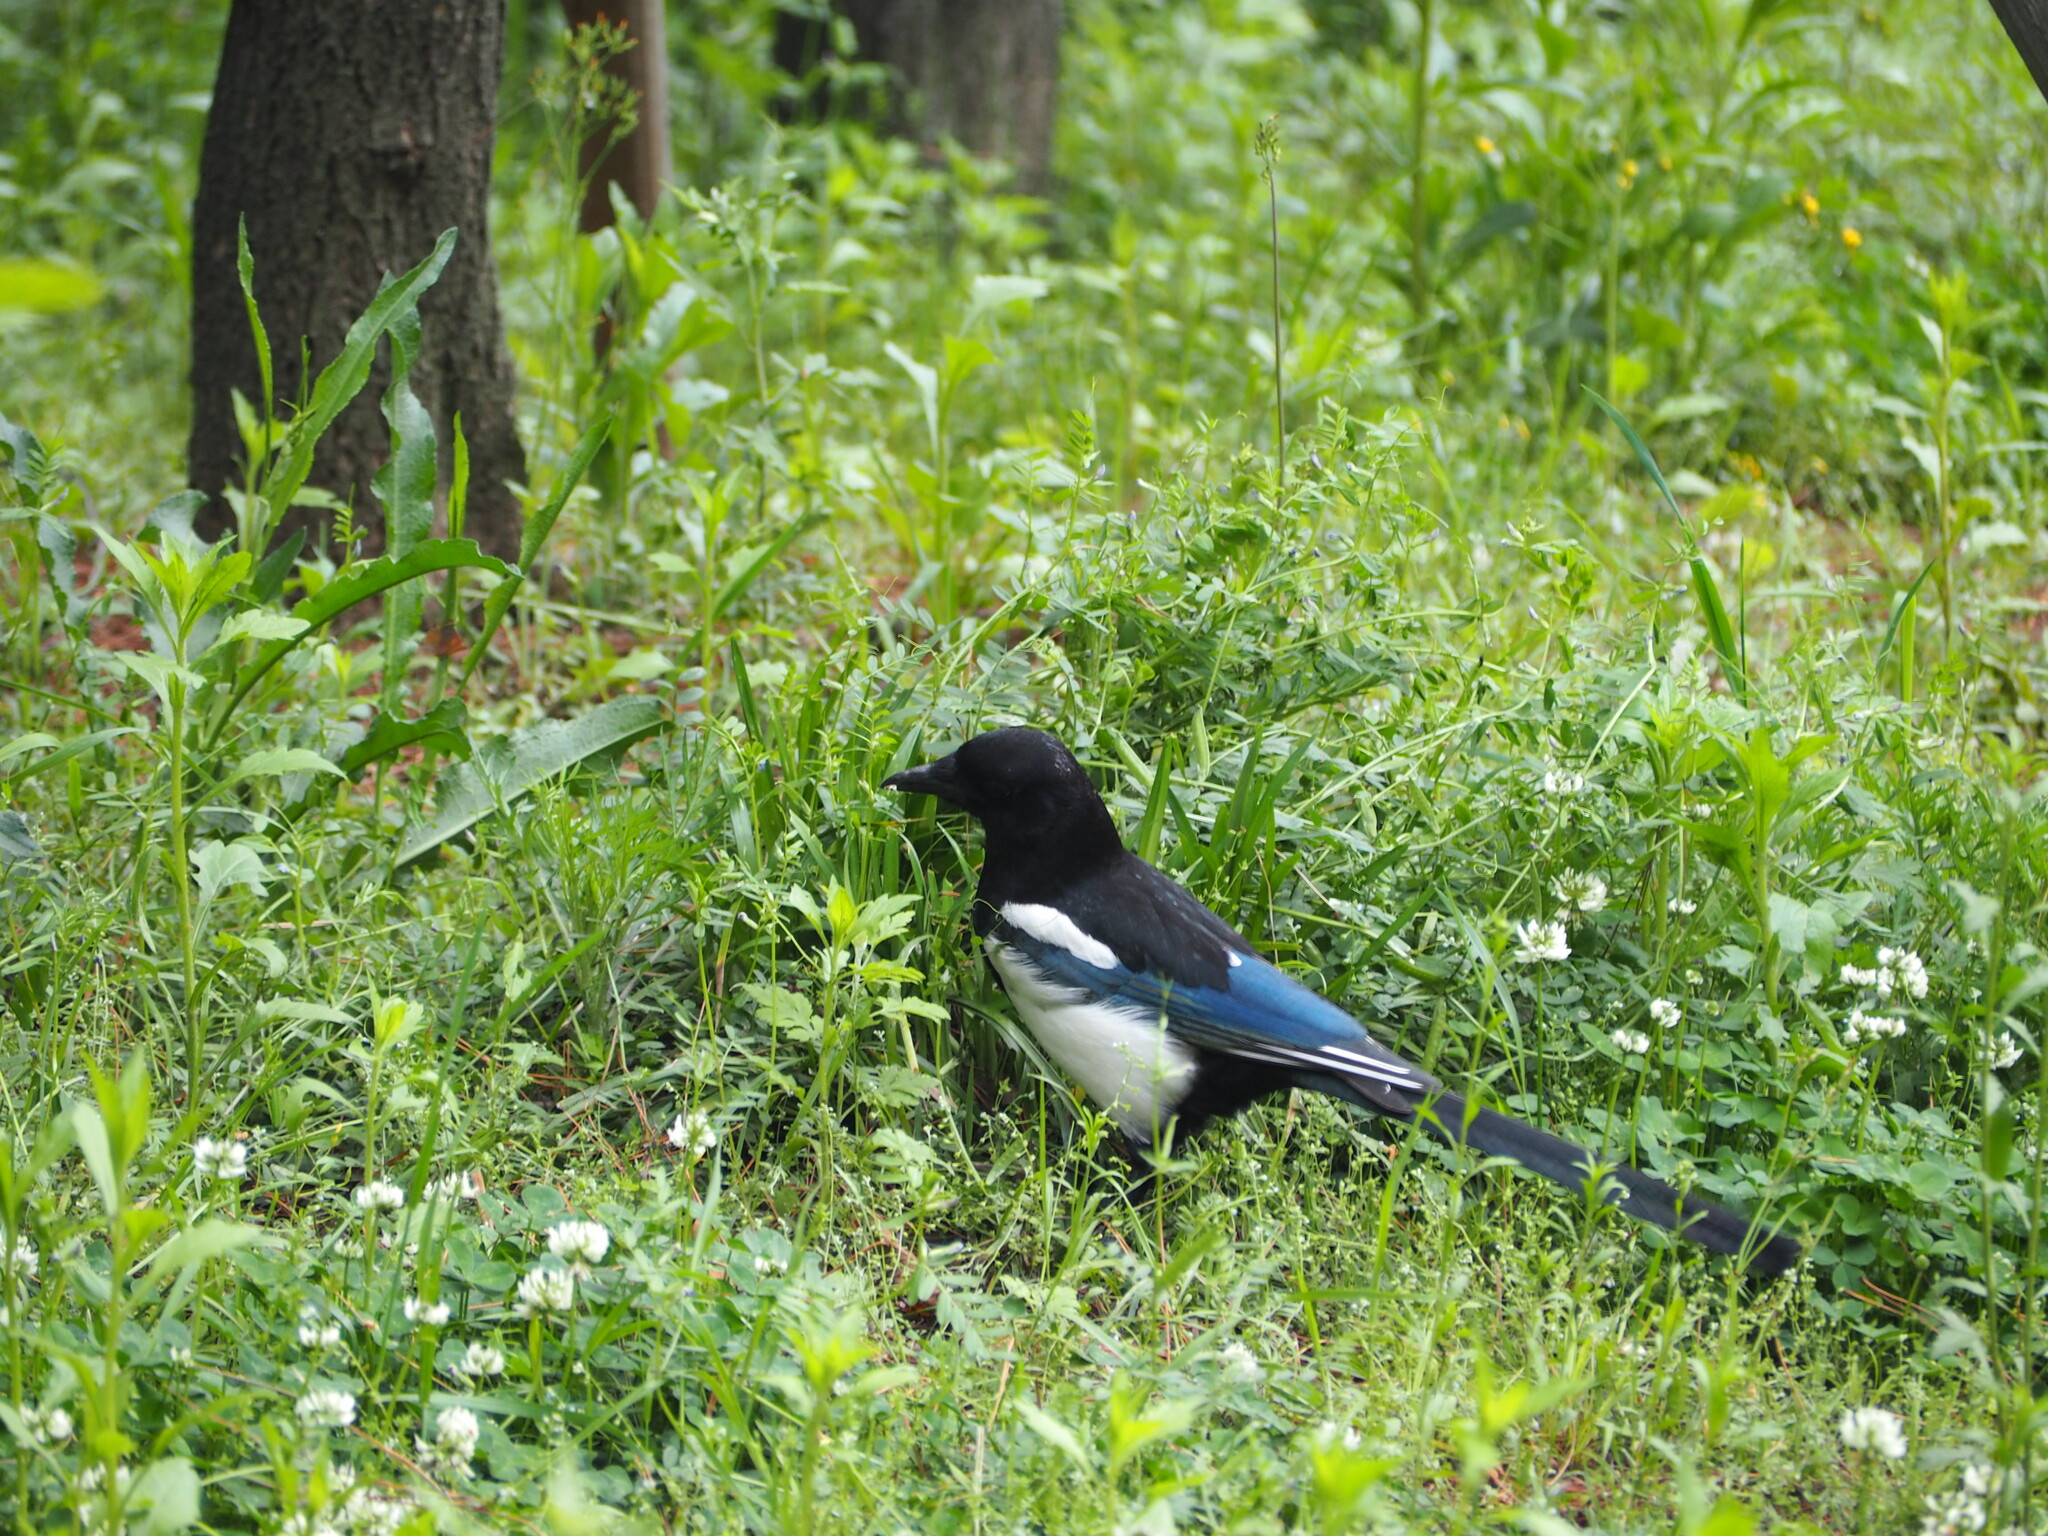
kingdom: Animalia
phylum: Chordata
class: Aves
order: Passeriformes
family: Corvidae
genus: Pica
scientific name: Pica serica
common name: Oriental magpie
